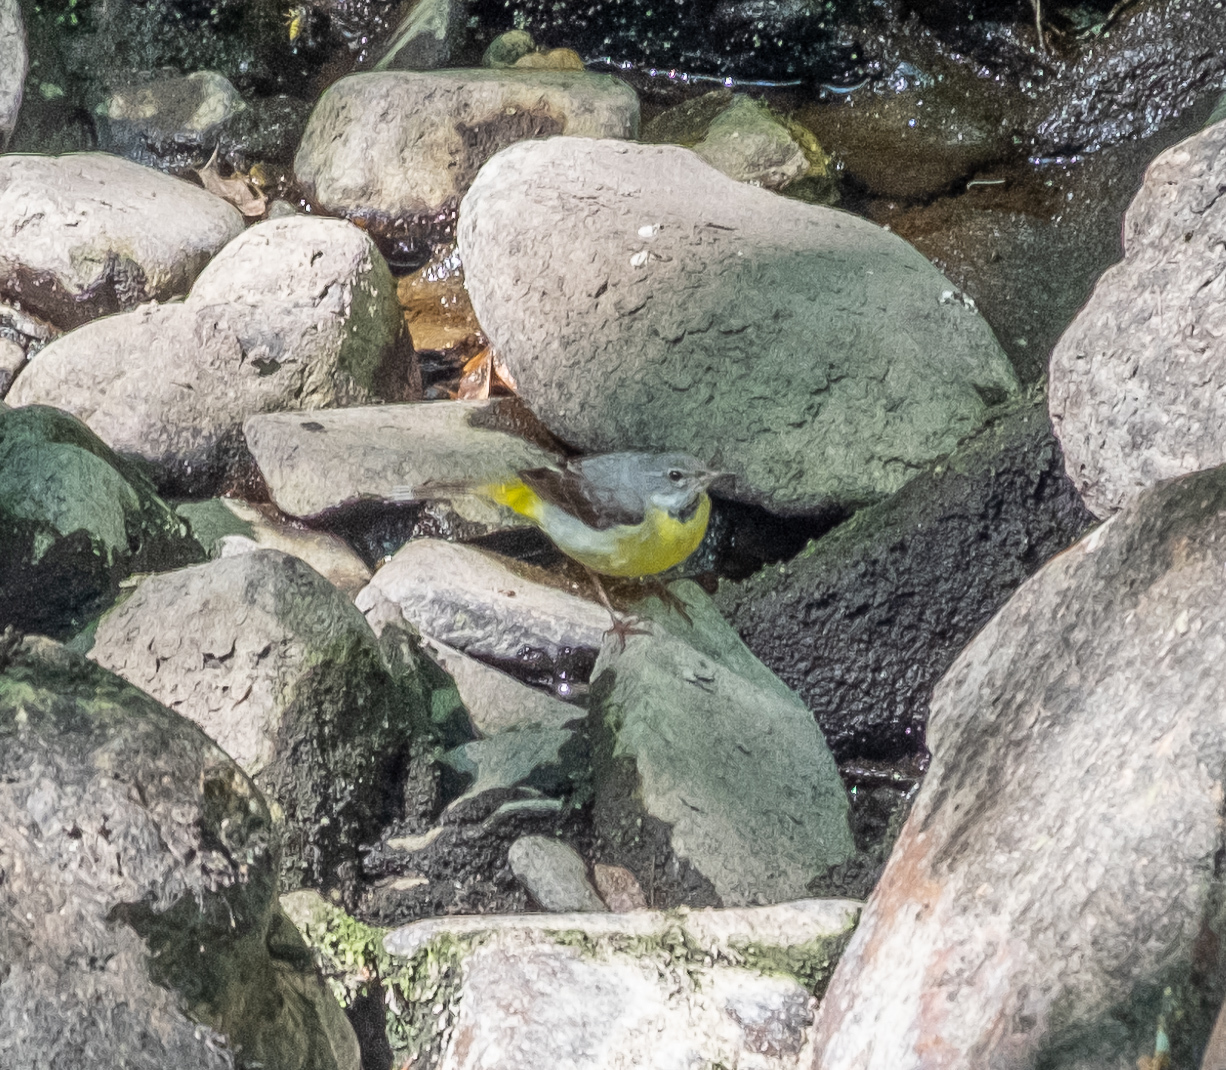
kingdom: Animalia
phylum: Chordata
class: Aves
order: Passeriformes
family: Motacillidae
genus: Motacilla
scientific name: Motacilla cinerea
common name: Grey wagtail
